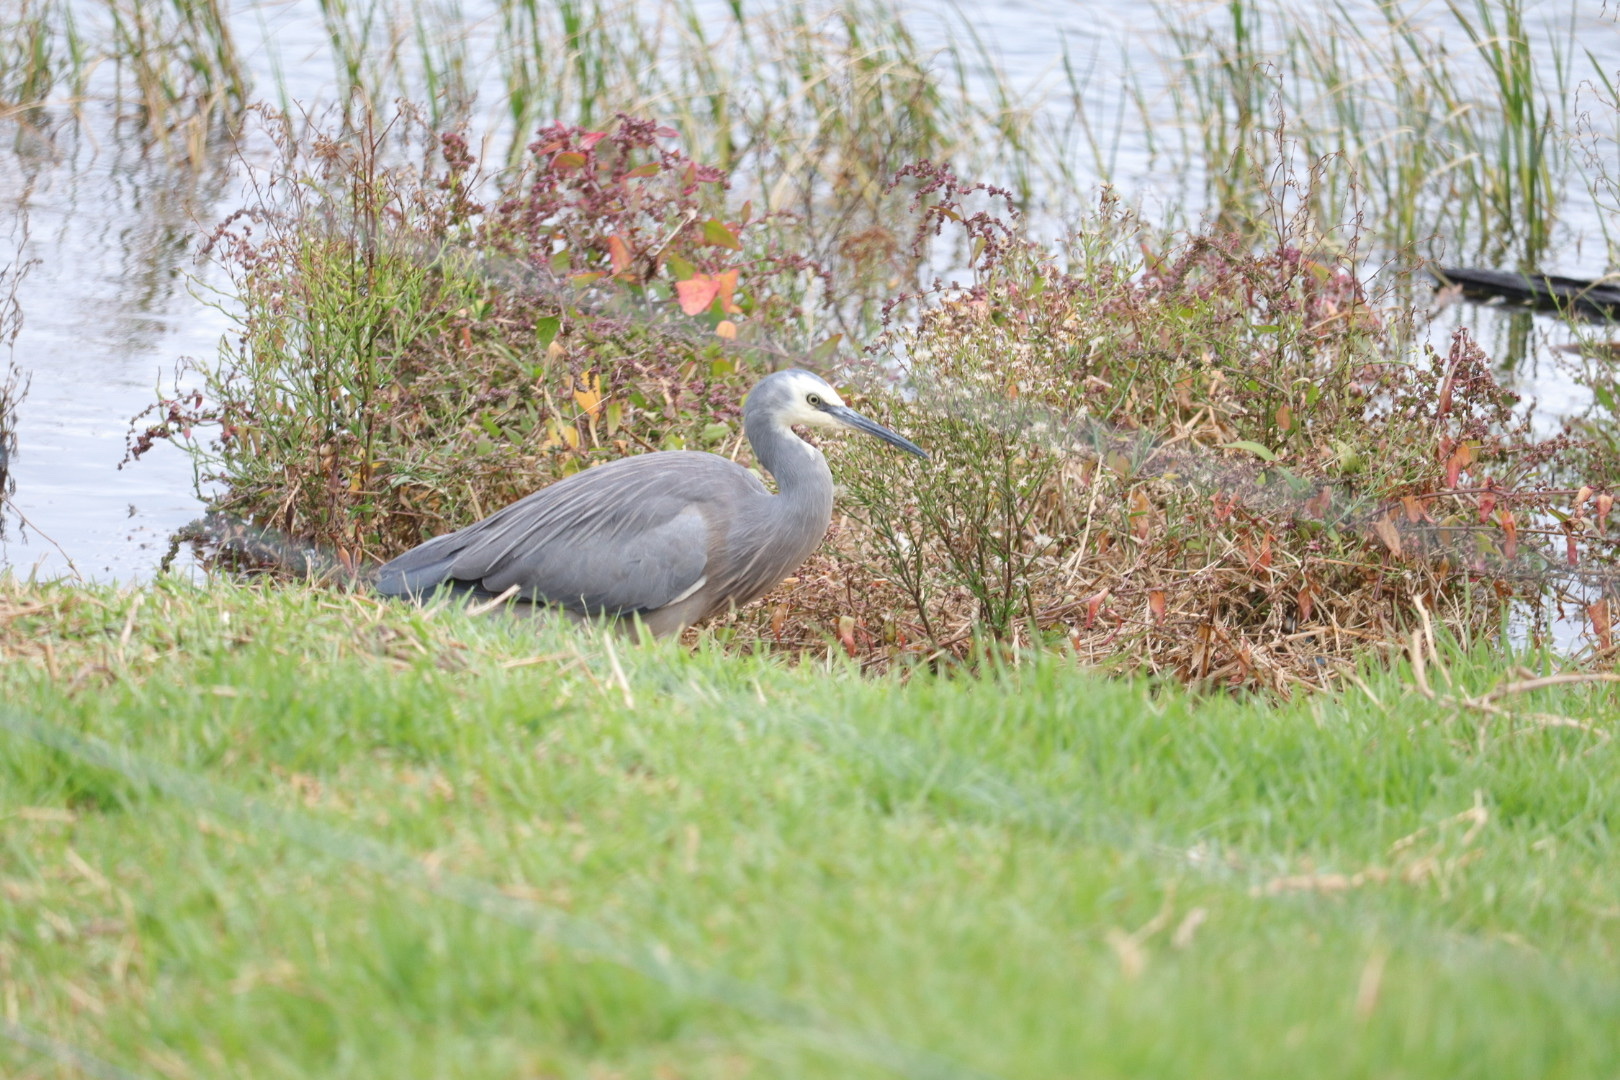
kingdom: Animalia
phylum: Chordata
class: Aves
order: Pelecaniformes
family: Ardeidae
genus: Egretta
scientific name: Egretta novaehollandiae
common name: White-faced heron
